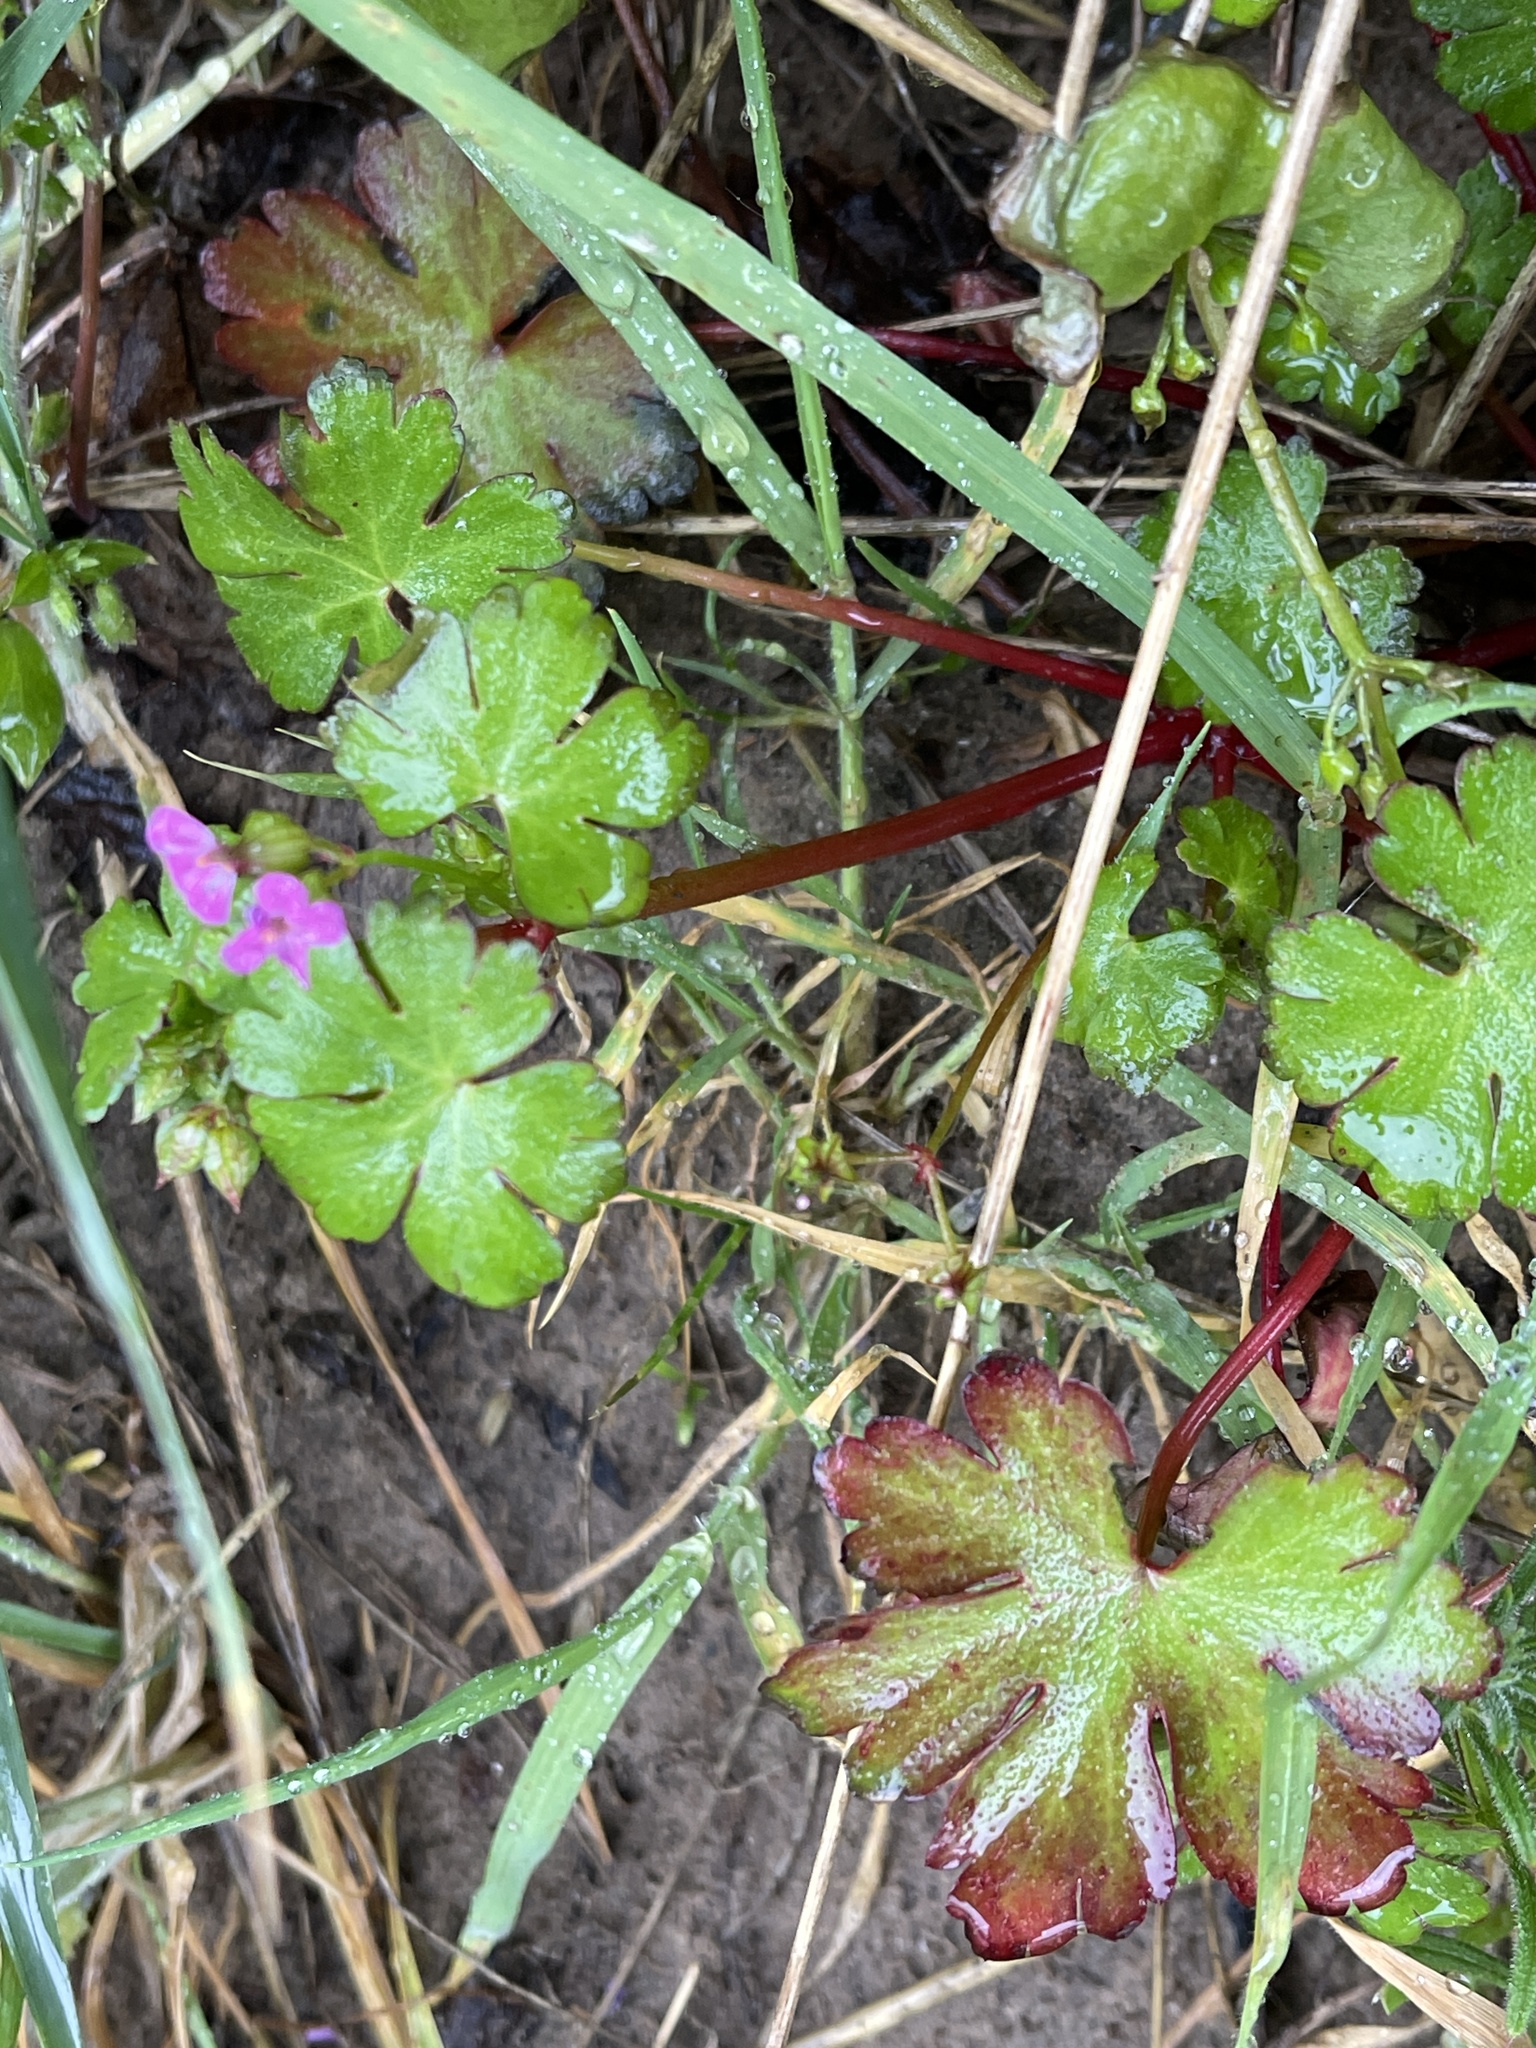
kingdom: Plantae
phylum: Tracheophyta
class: Magnoliopsida
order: Geraniales
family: Geraniaceae
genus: Geranium
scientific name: Geranium lucidum
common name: Shining crane's-bill
